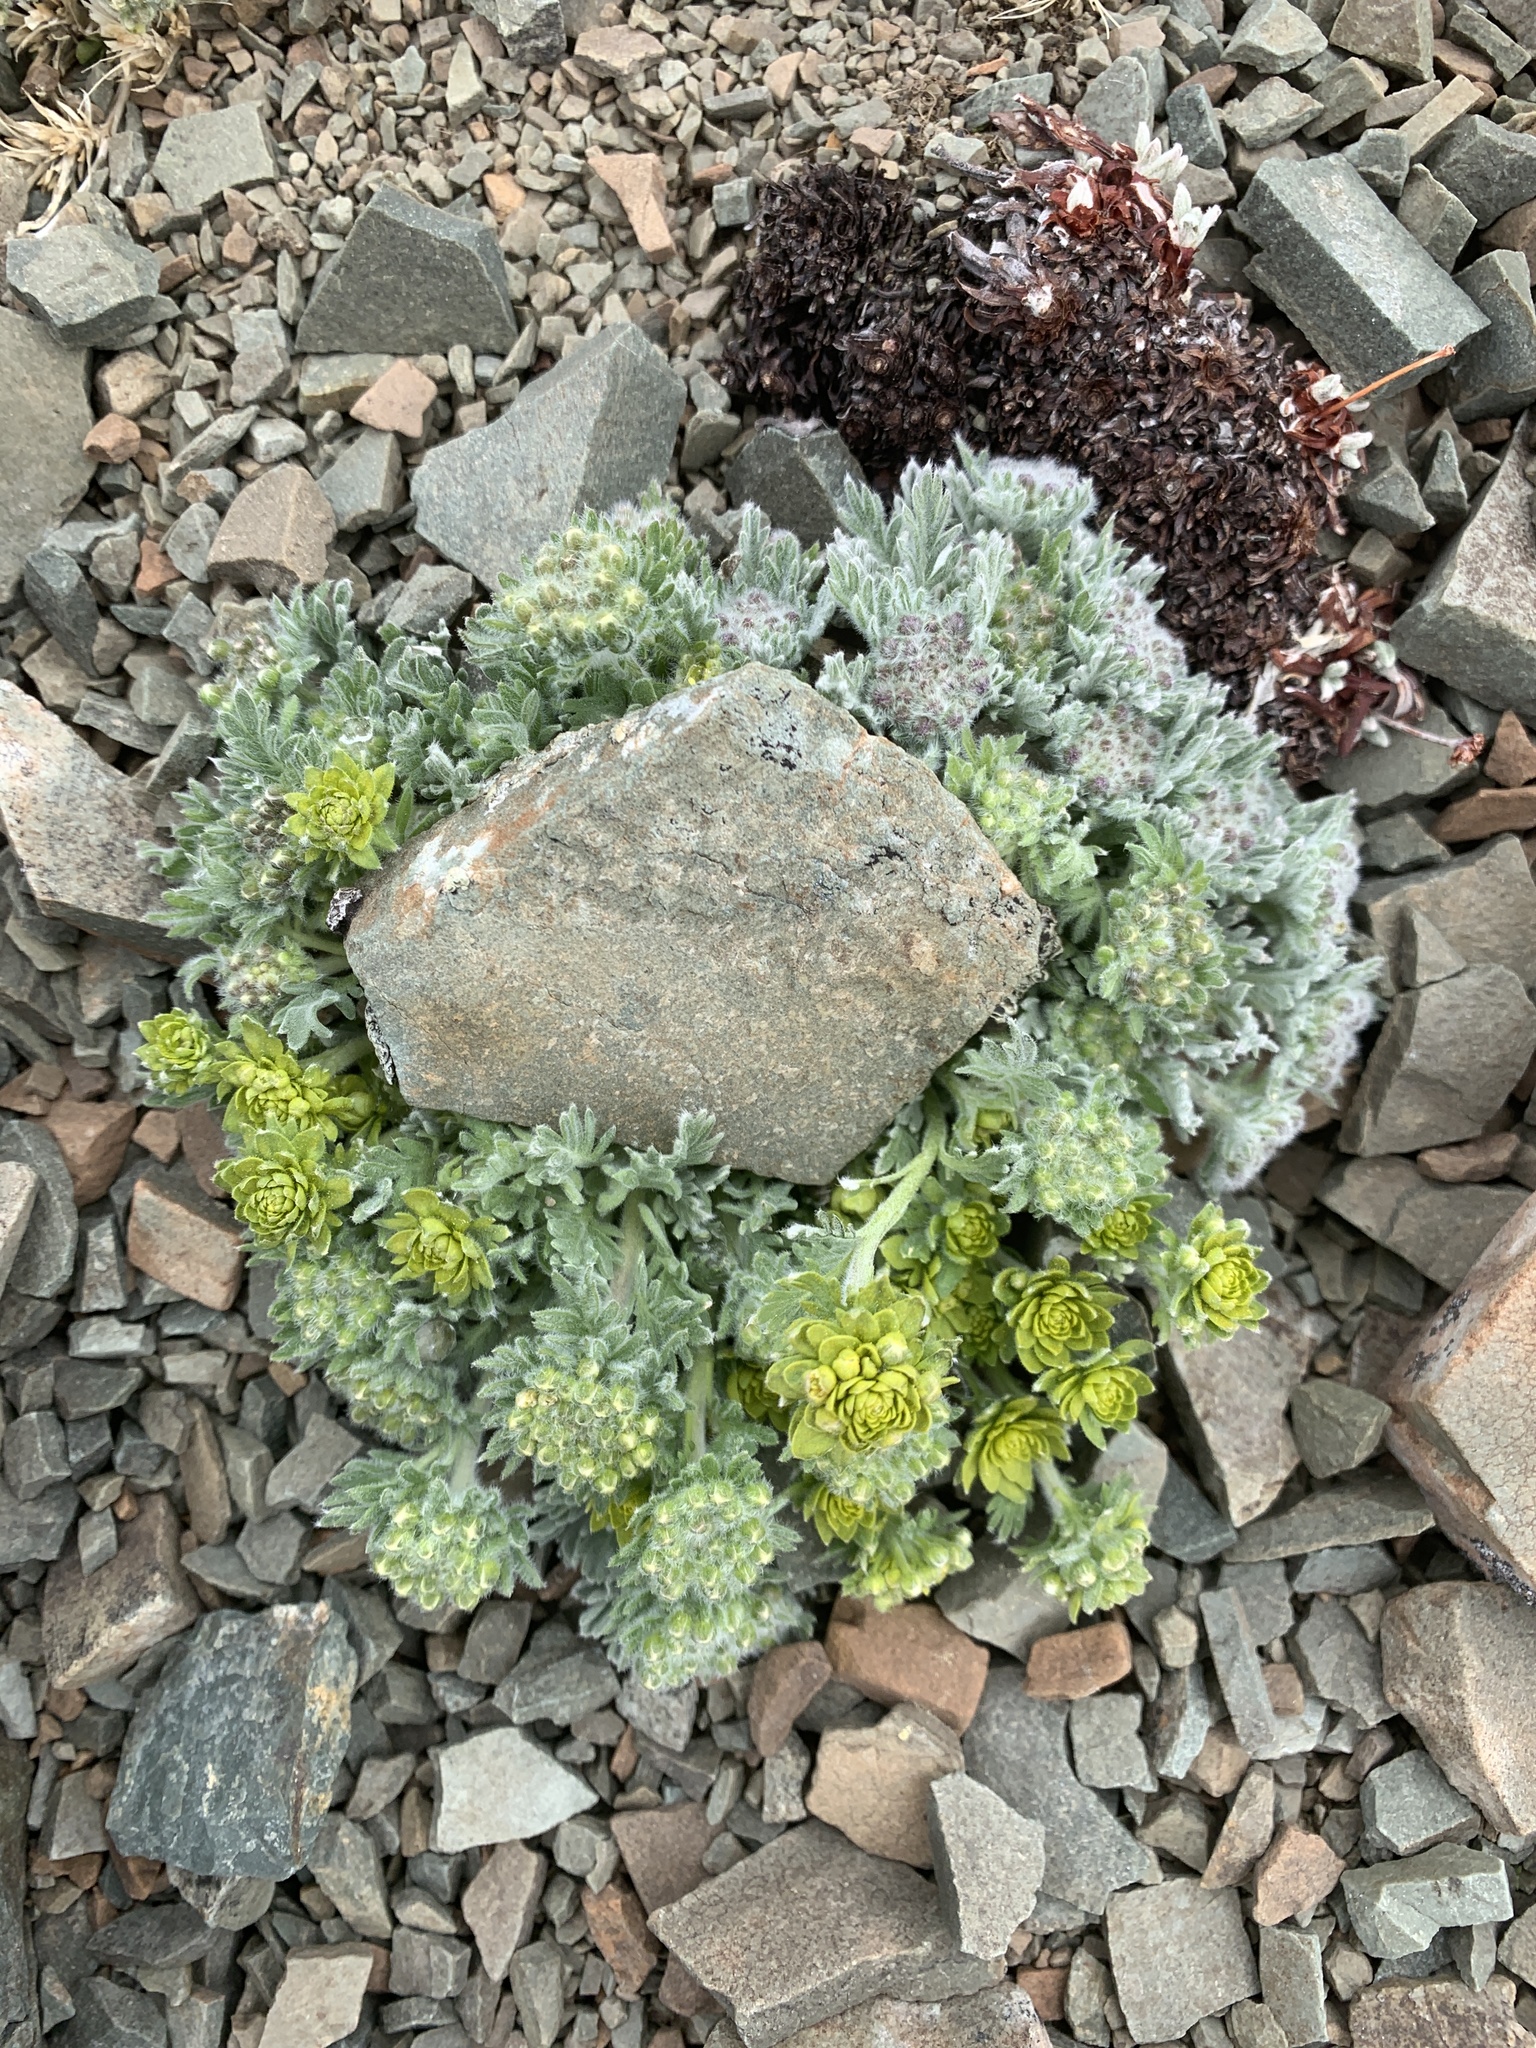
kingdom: Plantae
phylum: Tracheophyta
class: Magnoliopsida
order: Brassicales
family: Brassicaceae
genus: Smelowskia
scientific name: Smelowskia americana
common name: American false candytuft
